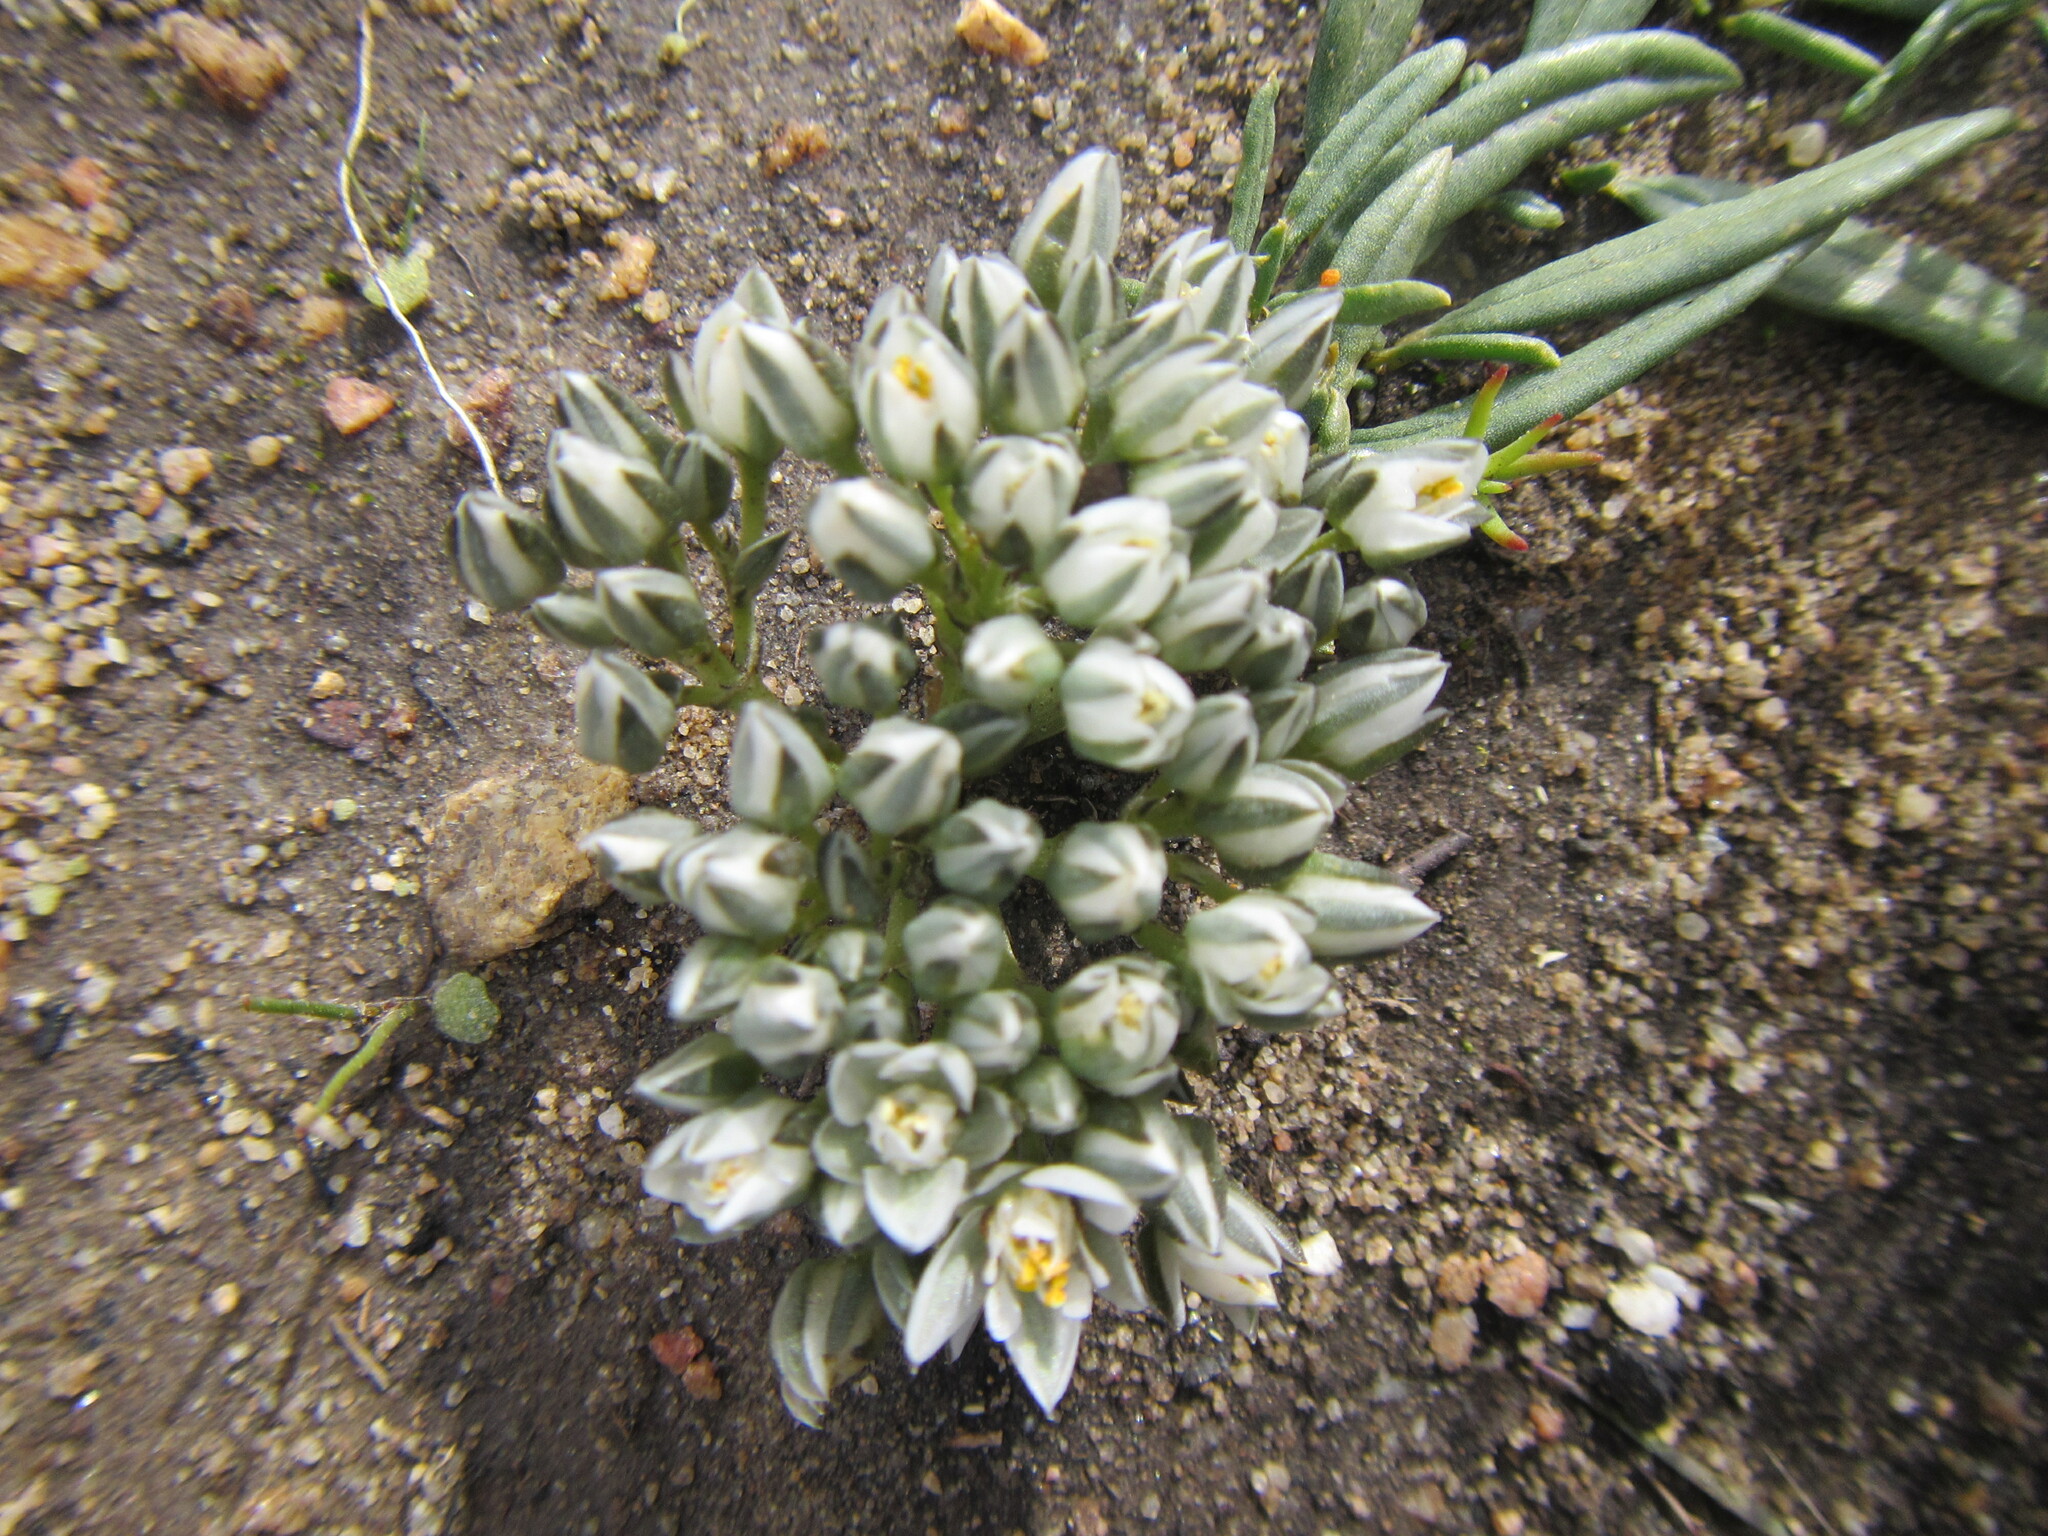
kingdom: Plantae
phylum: Tracheophyta
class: Magnoliopsida
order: Caryophyllales
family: Limeaceae
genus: Limeum
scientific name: Limeum africanum
